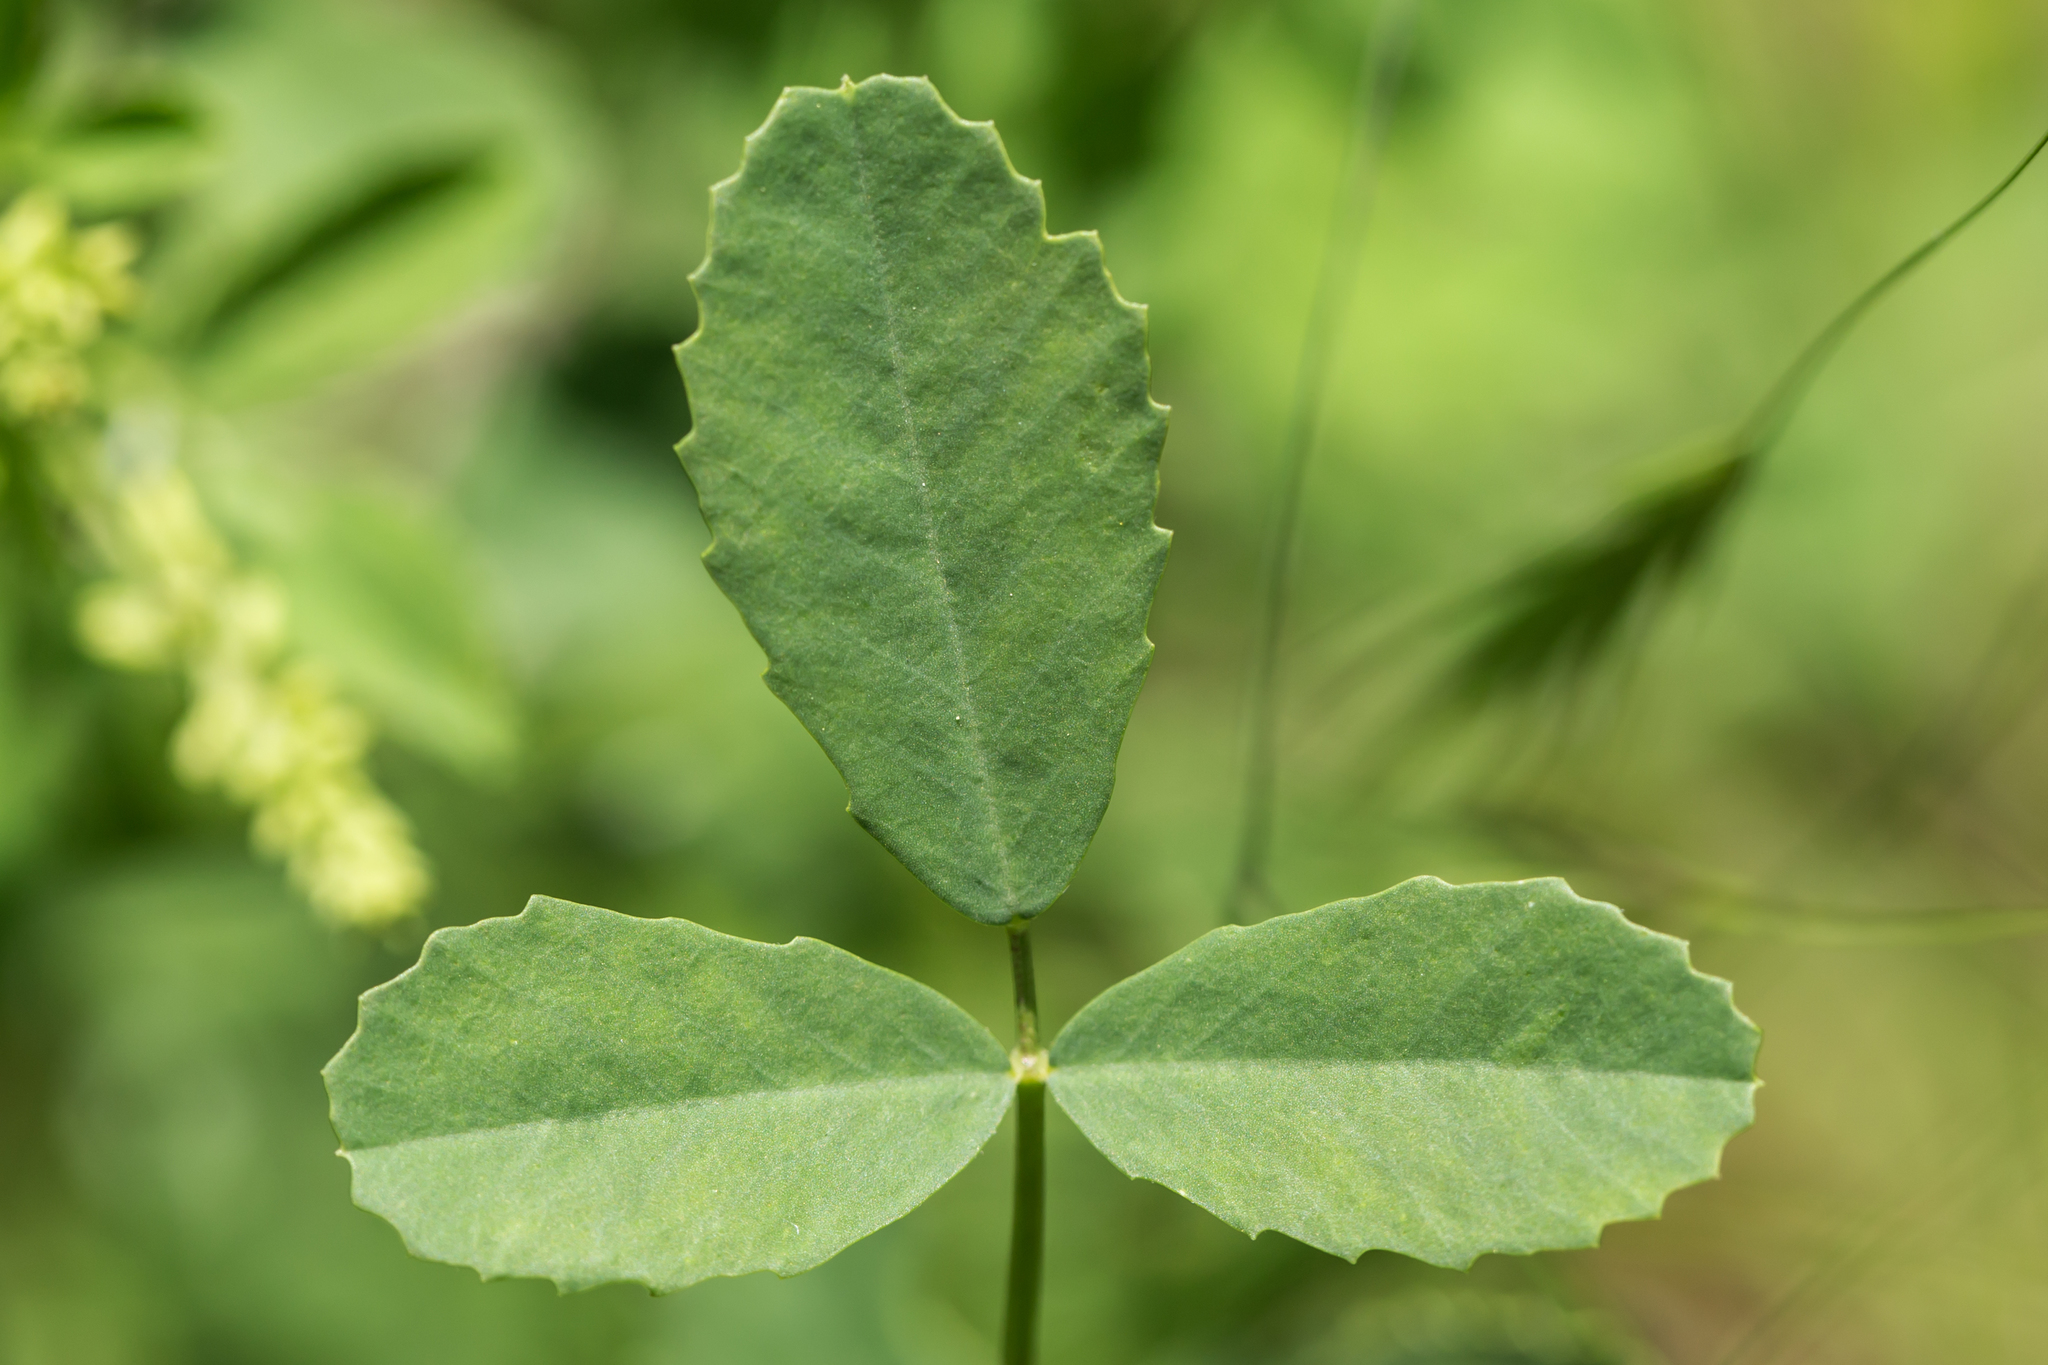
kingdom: Plantae
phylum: Tracheophyta
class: Magnoliopsida
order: Fabales
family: Fabaceae
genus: Melilotus
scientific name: Melilotus officinalis
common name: Sweetclover
